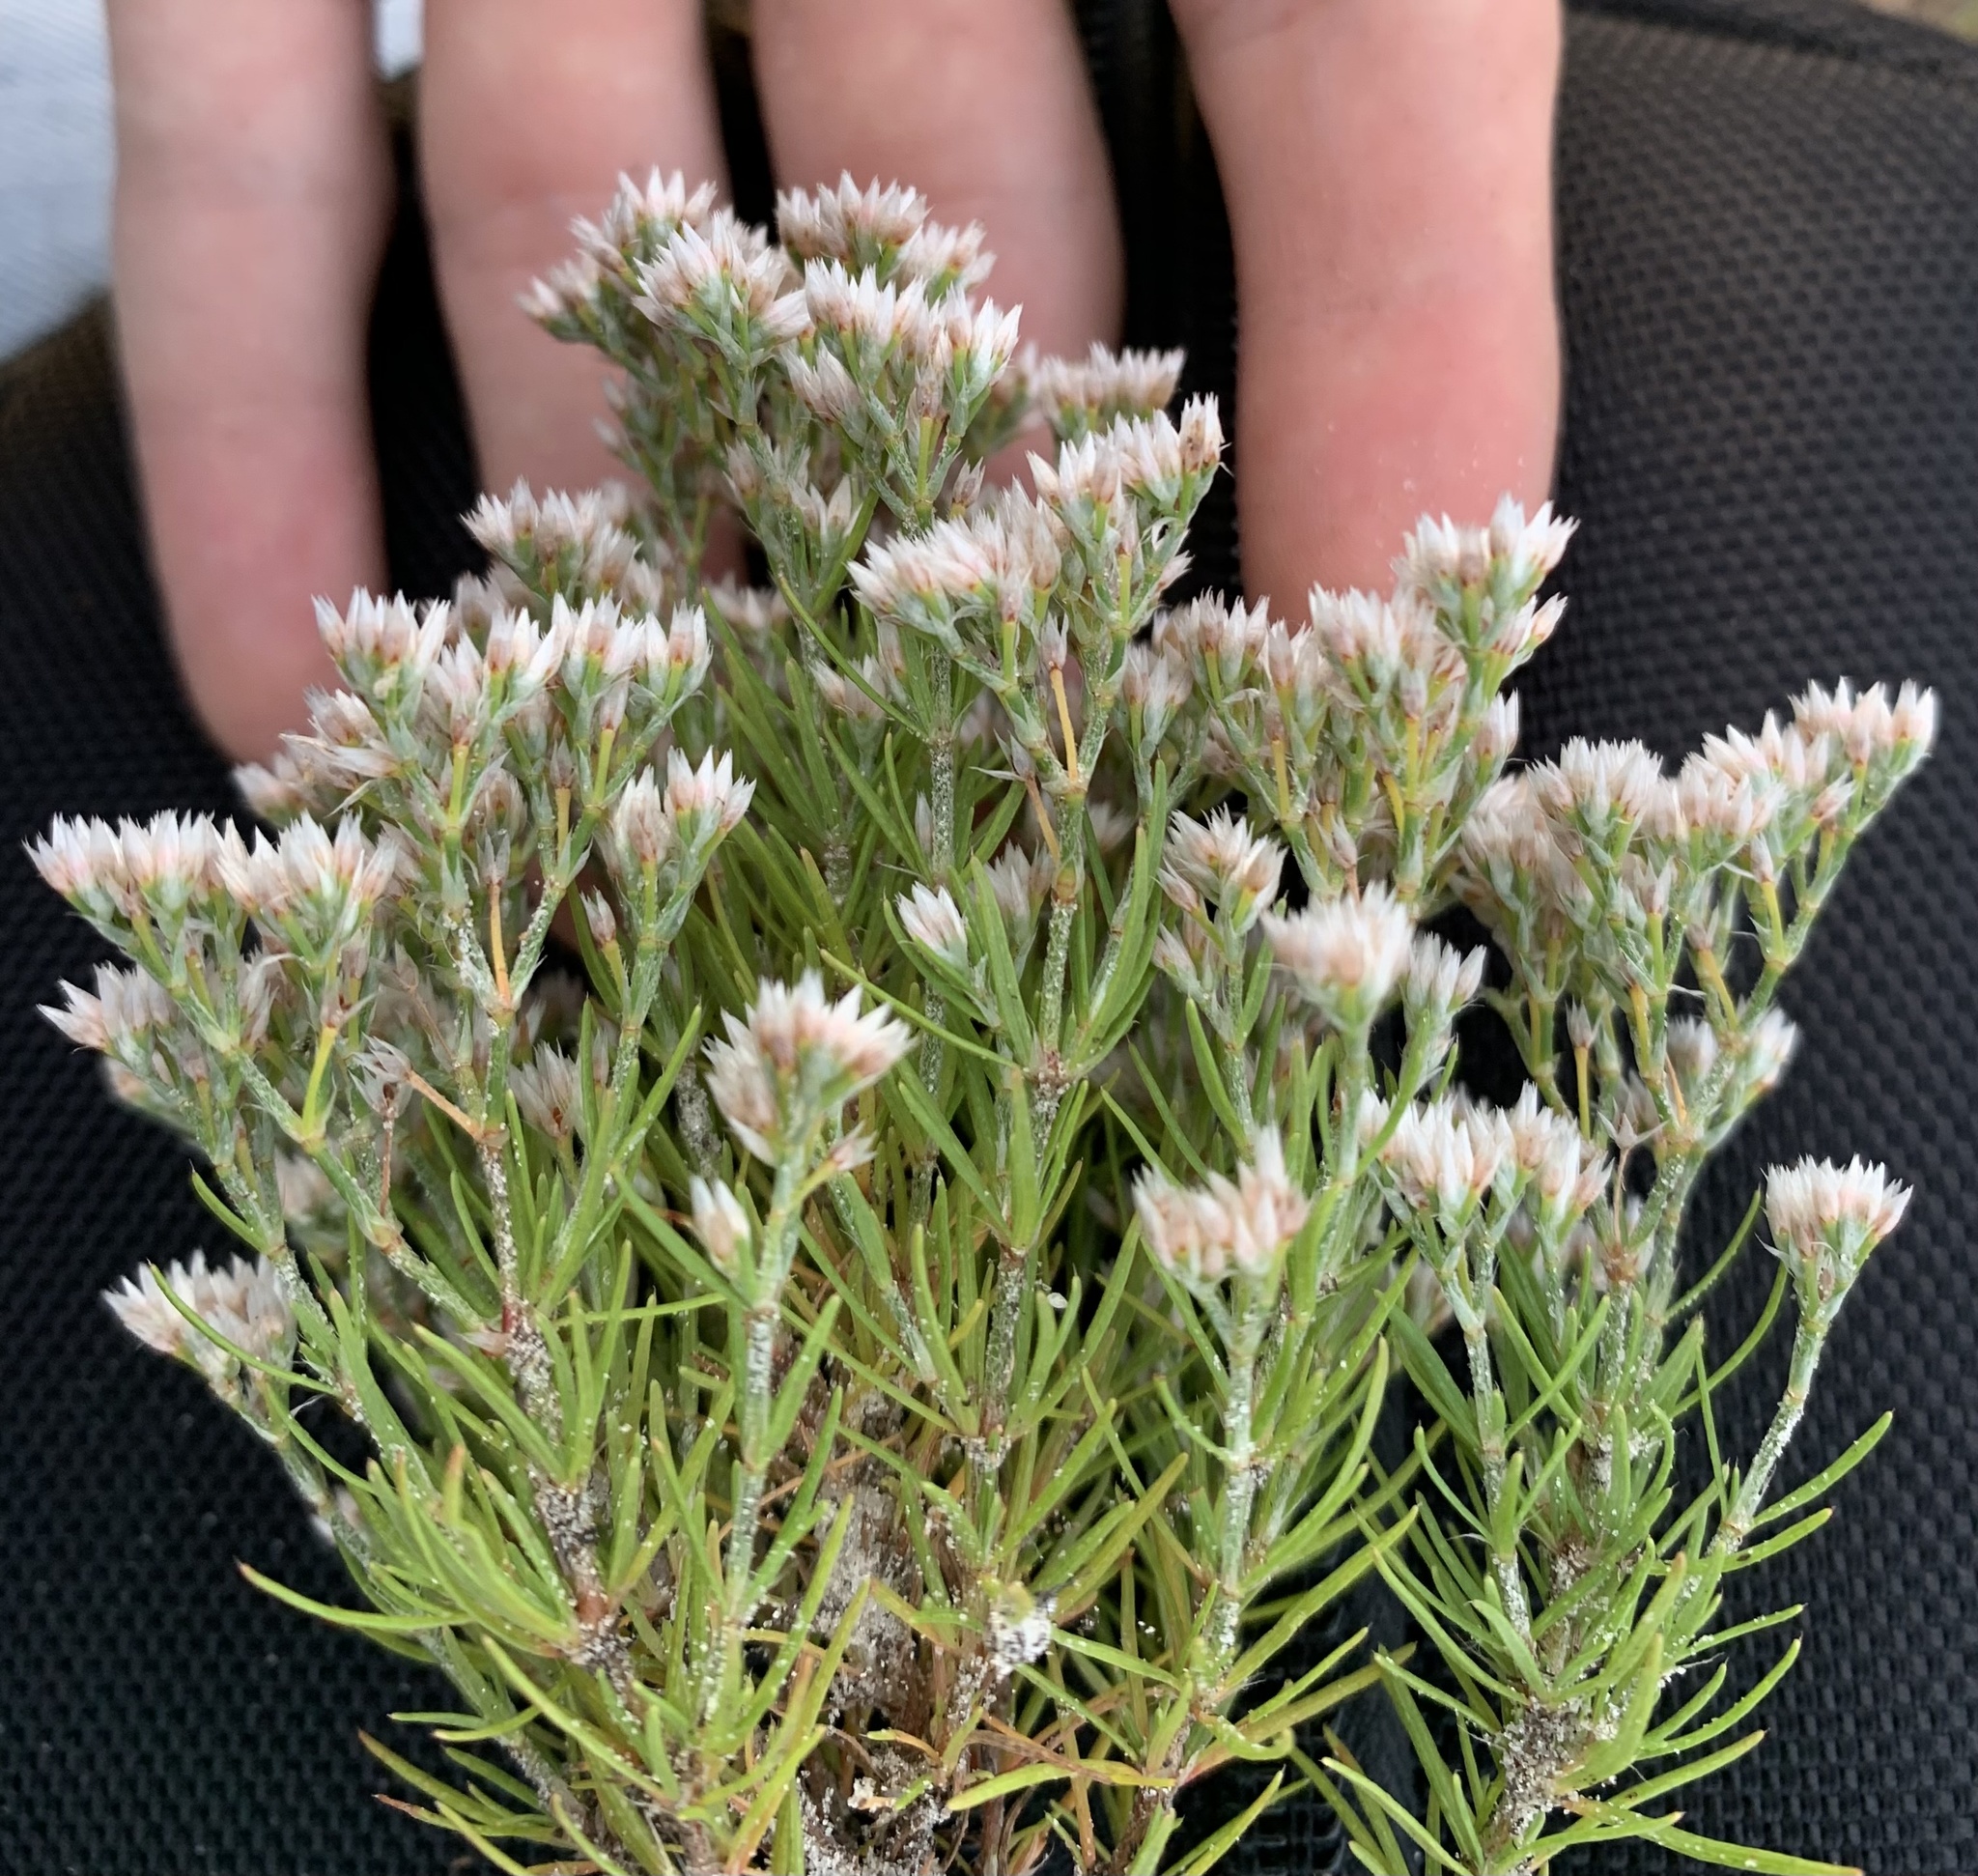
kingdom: Plantae
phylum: Tracheophyta
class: Magnoliopsida
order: Caryophyllales
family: Caryophyllaceae
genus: Polycarpaea
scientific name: Polycarpaea corymbosa
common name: Oldman's cap
